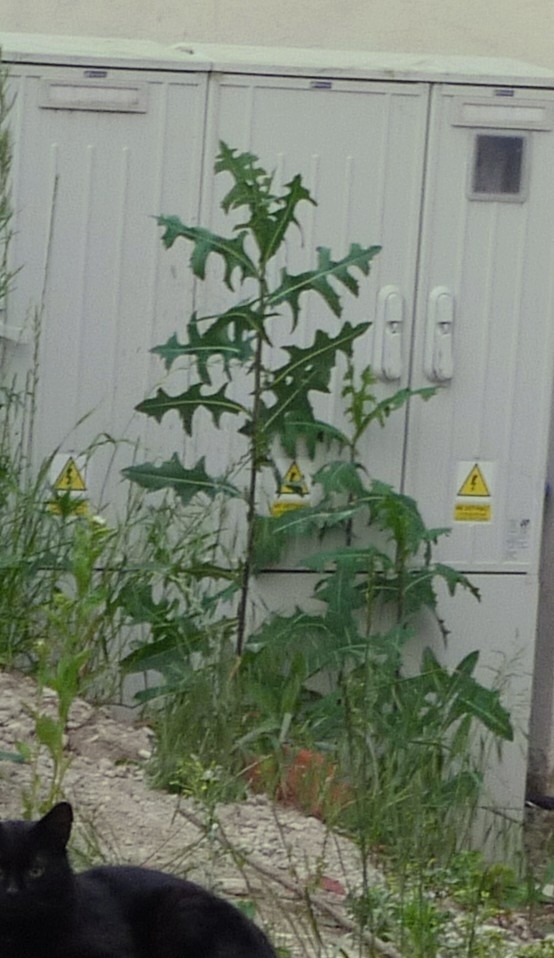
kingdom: Plantae
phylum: Tracheophyta
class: Magnoliopsida
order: Asterales
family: Asteraceae
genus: Lactuca
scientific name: Lactuca serriola
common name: Prickly lettuce
